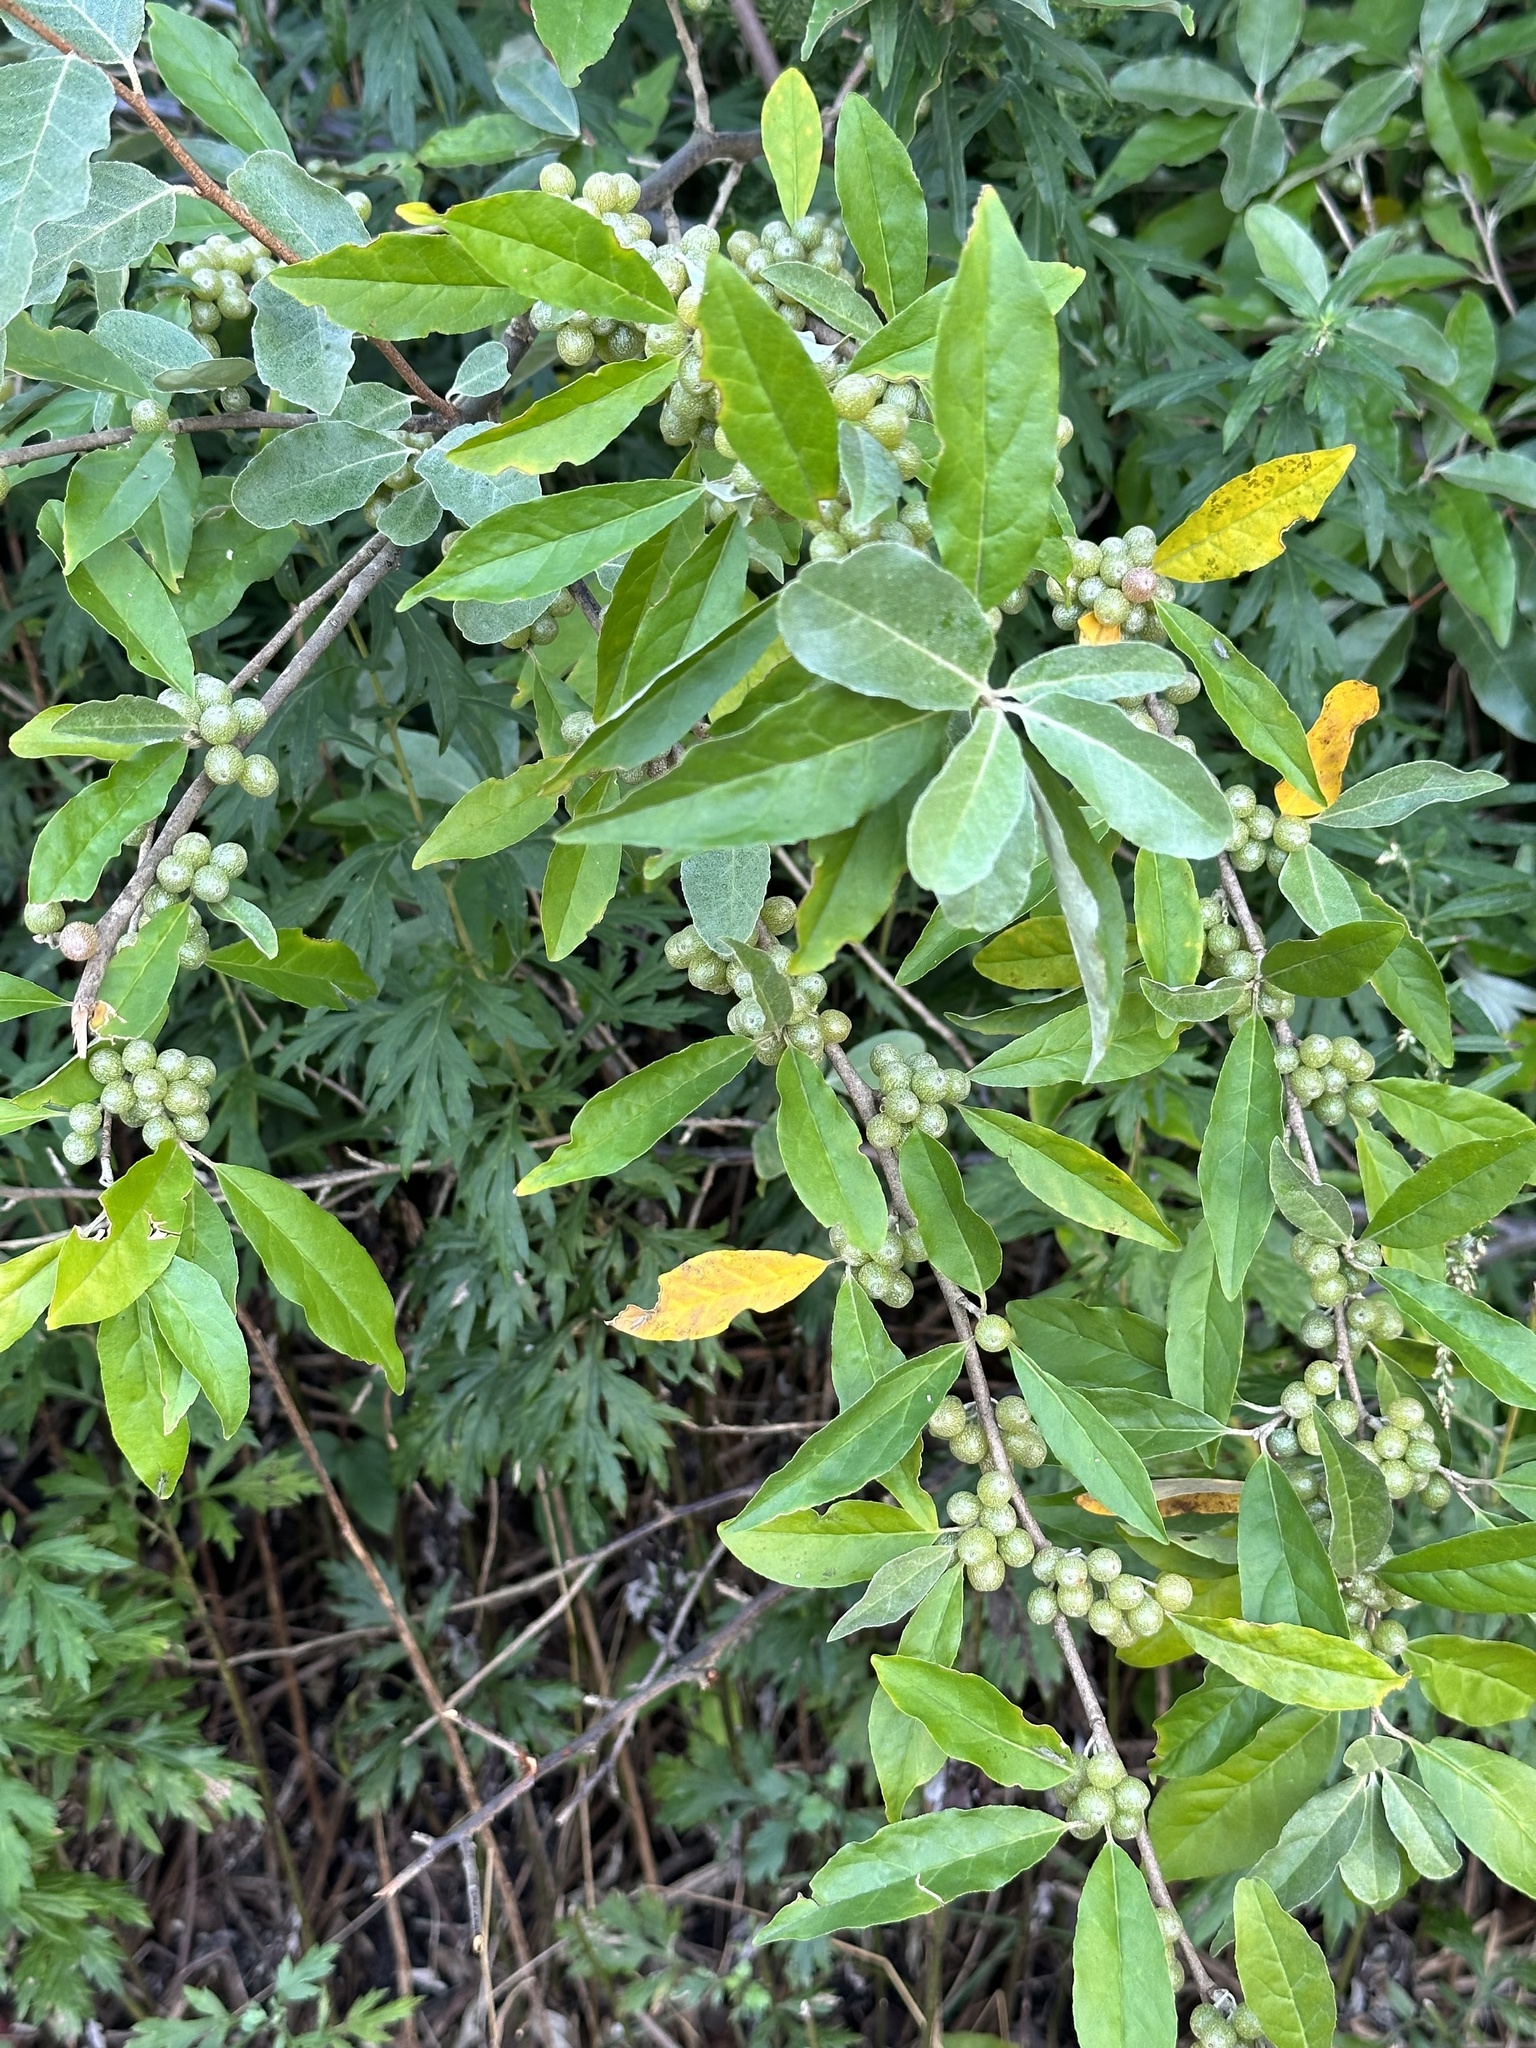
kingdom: Plantae
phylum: Tracheophyta
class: Magnoliopsida
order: Rosales
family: Elaeagnaceae
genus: Elaeagnus
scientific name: Elaeagnus umbellata
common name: Autumn olive
